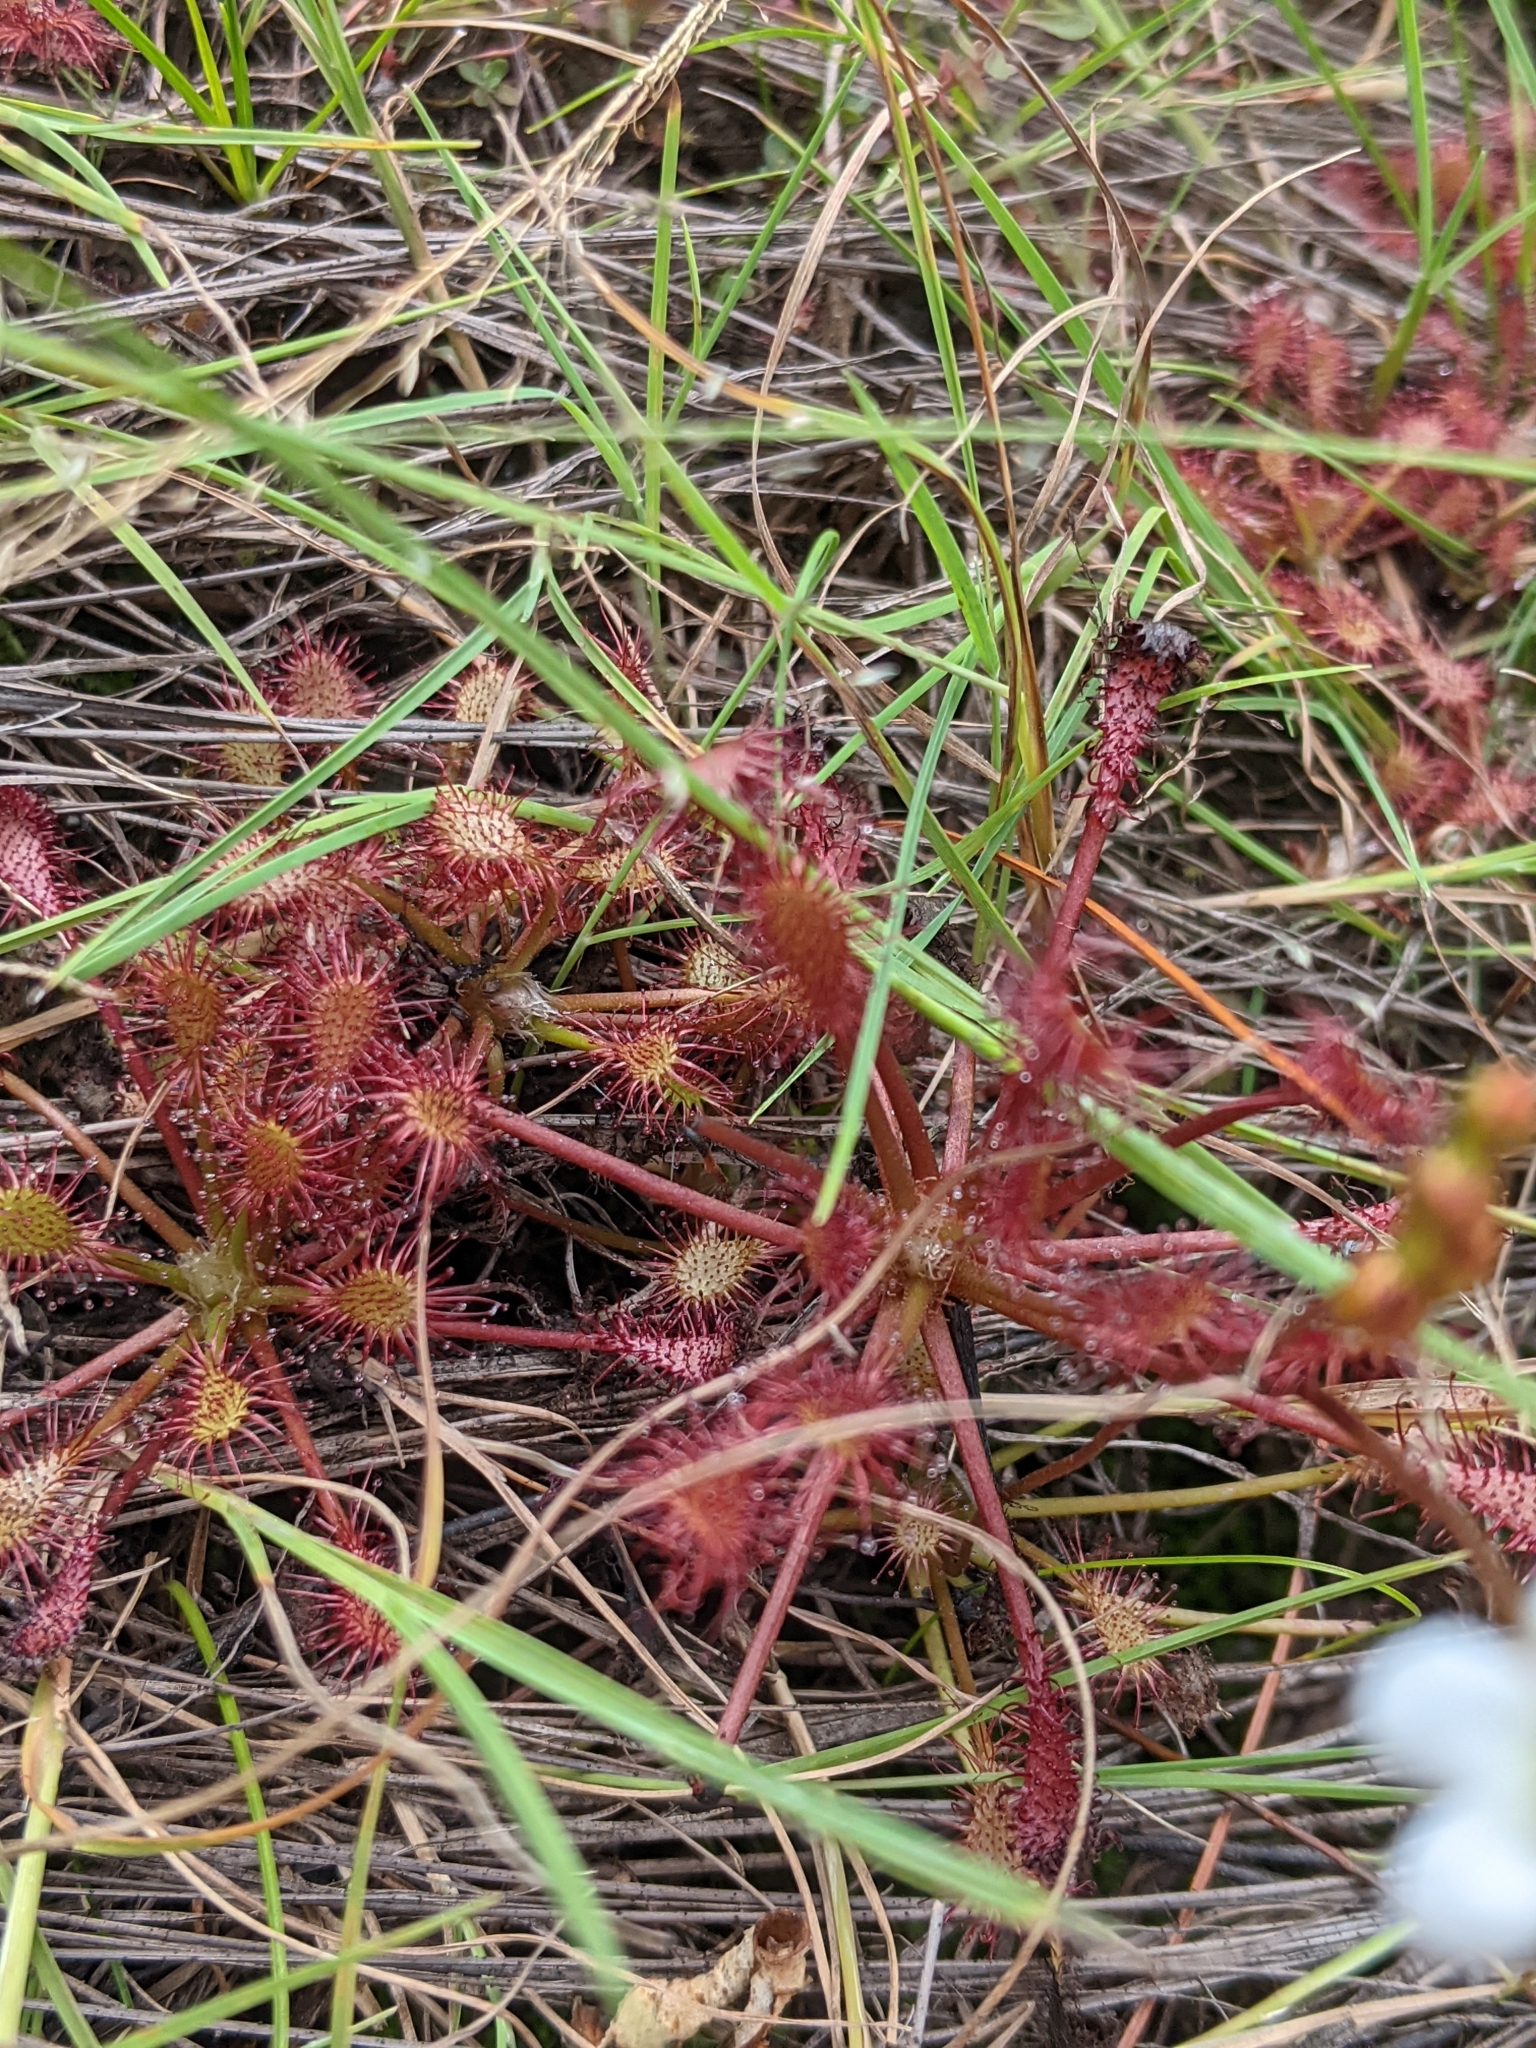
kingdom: Plantae
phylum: Tracheophyta
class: Magnoliopsida
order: Caryophyllales
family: Droseraceae
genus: Drosera
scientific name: Drosera intermedia
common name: Oblong-leaved sundew
